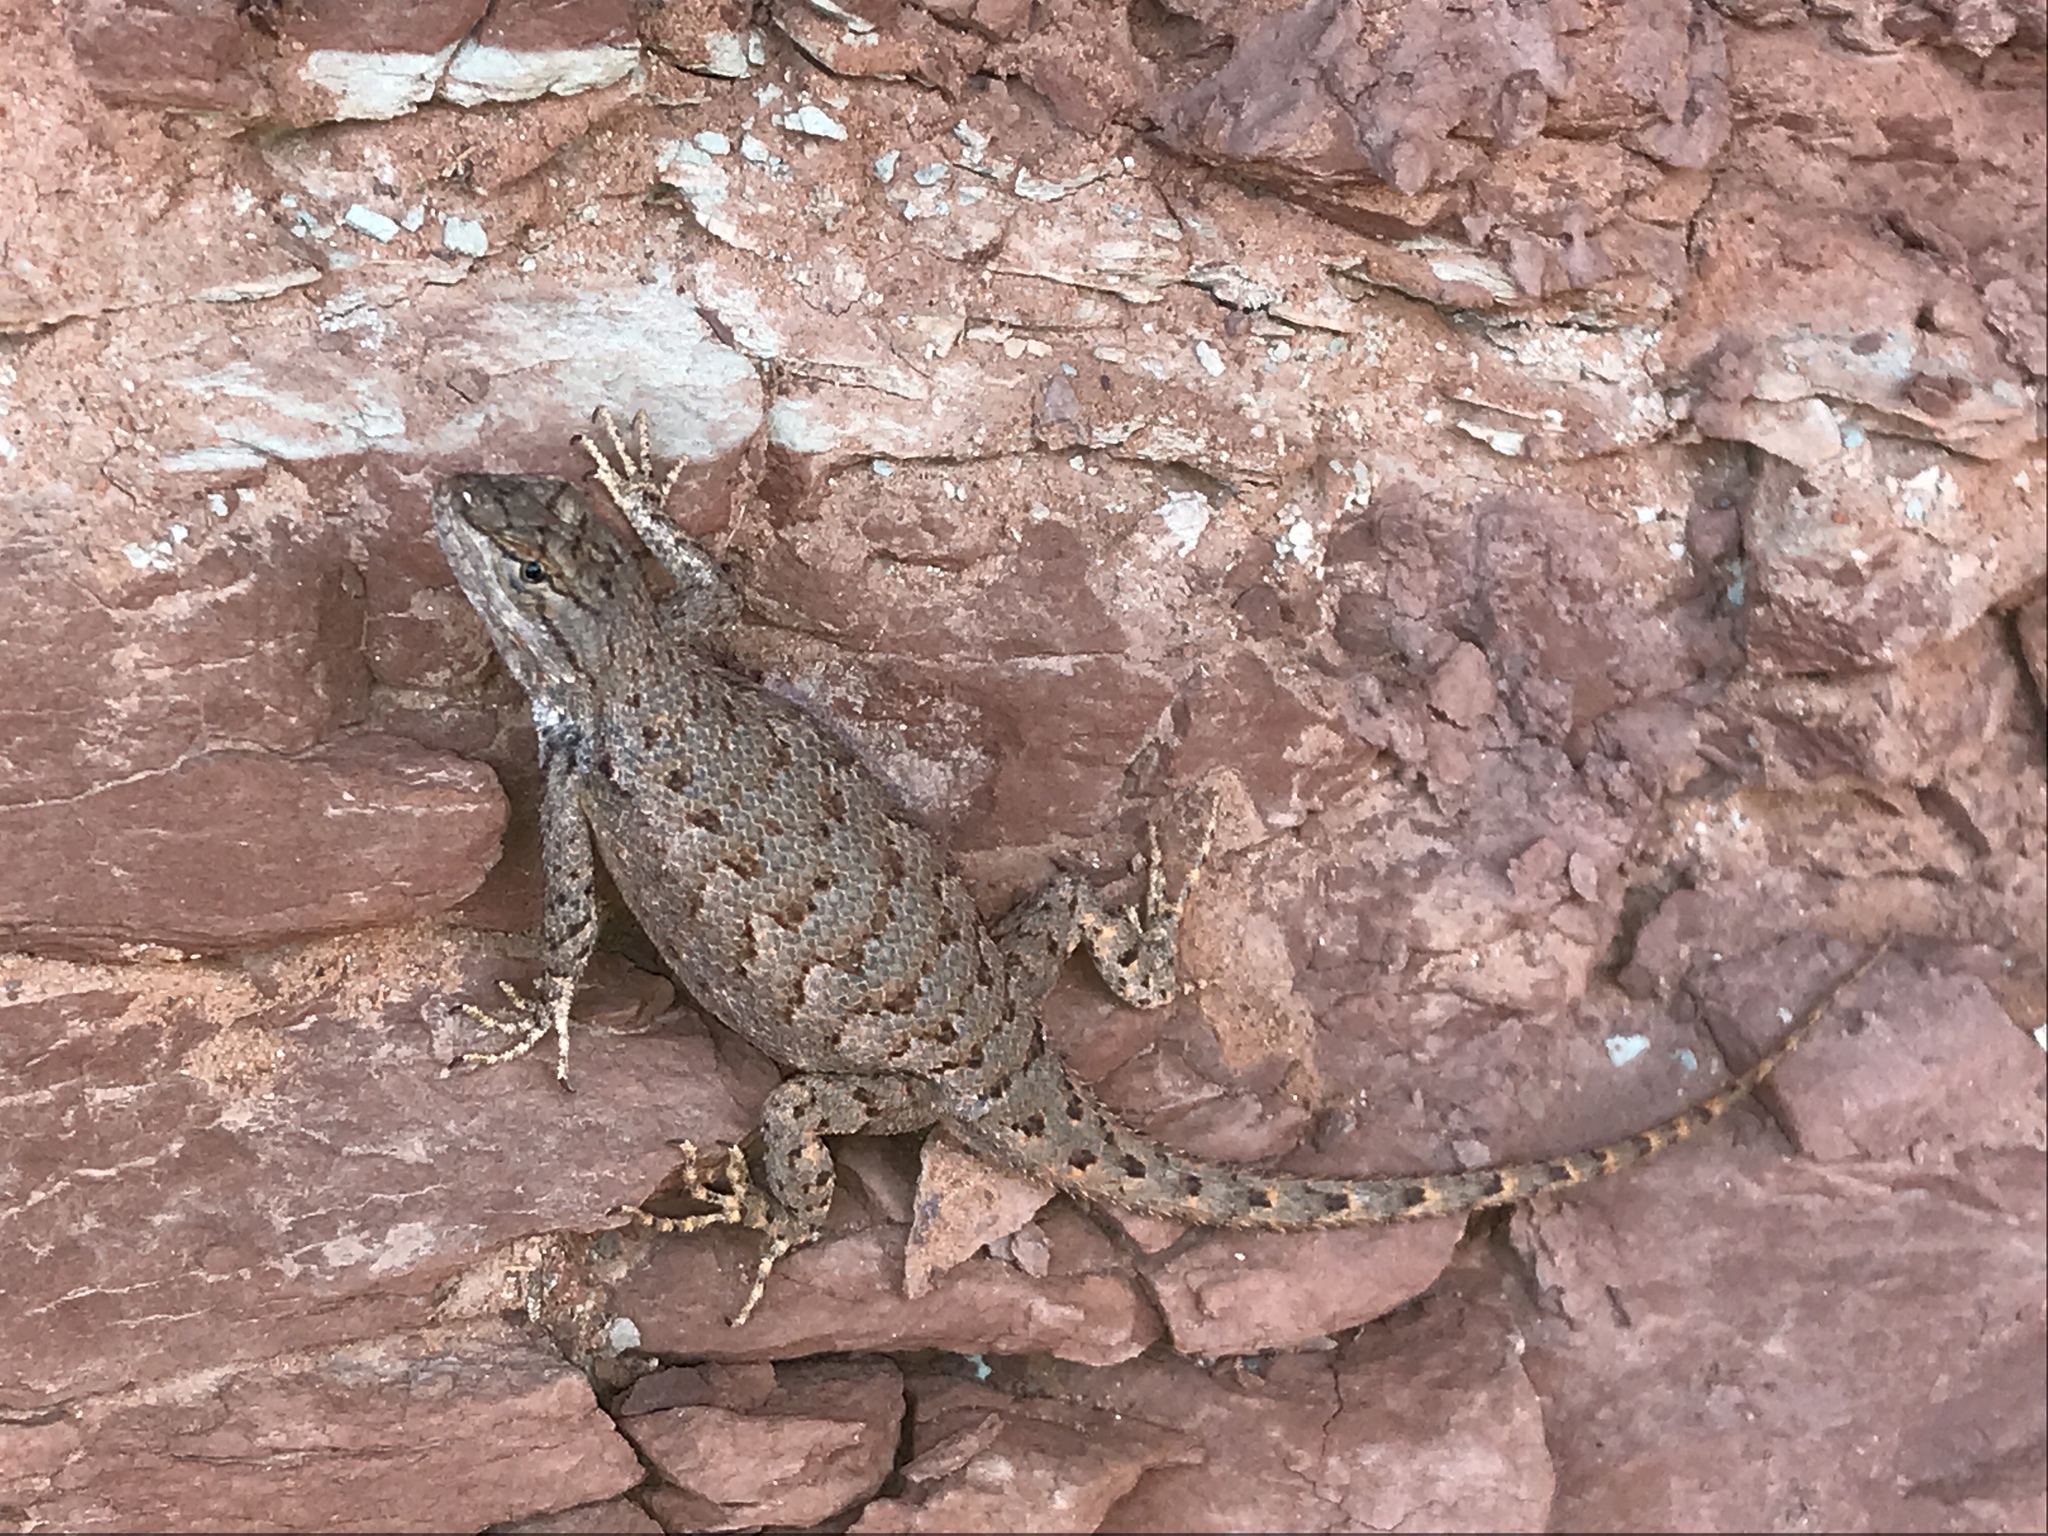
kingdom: Animalia
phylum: Chordata
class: Squamata
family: Phrynosomatidae
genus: Sceloporus
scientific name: Sceloporus tristichus
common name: Plateau fence lizard
